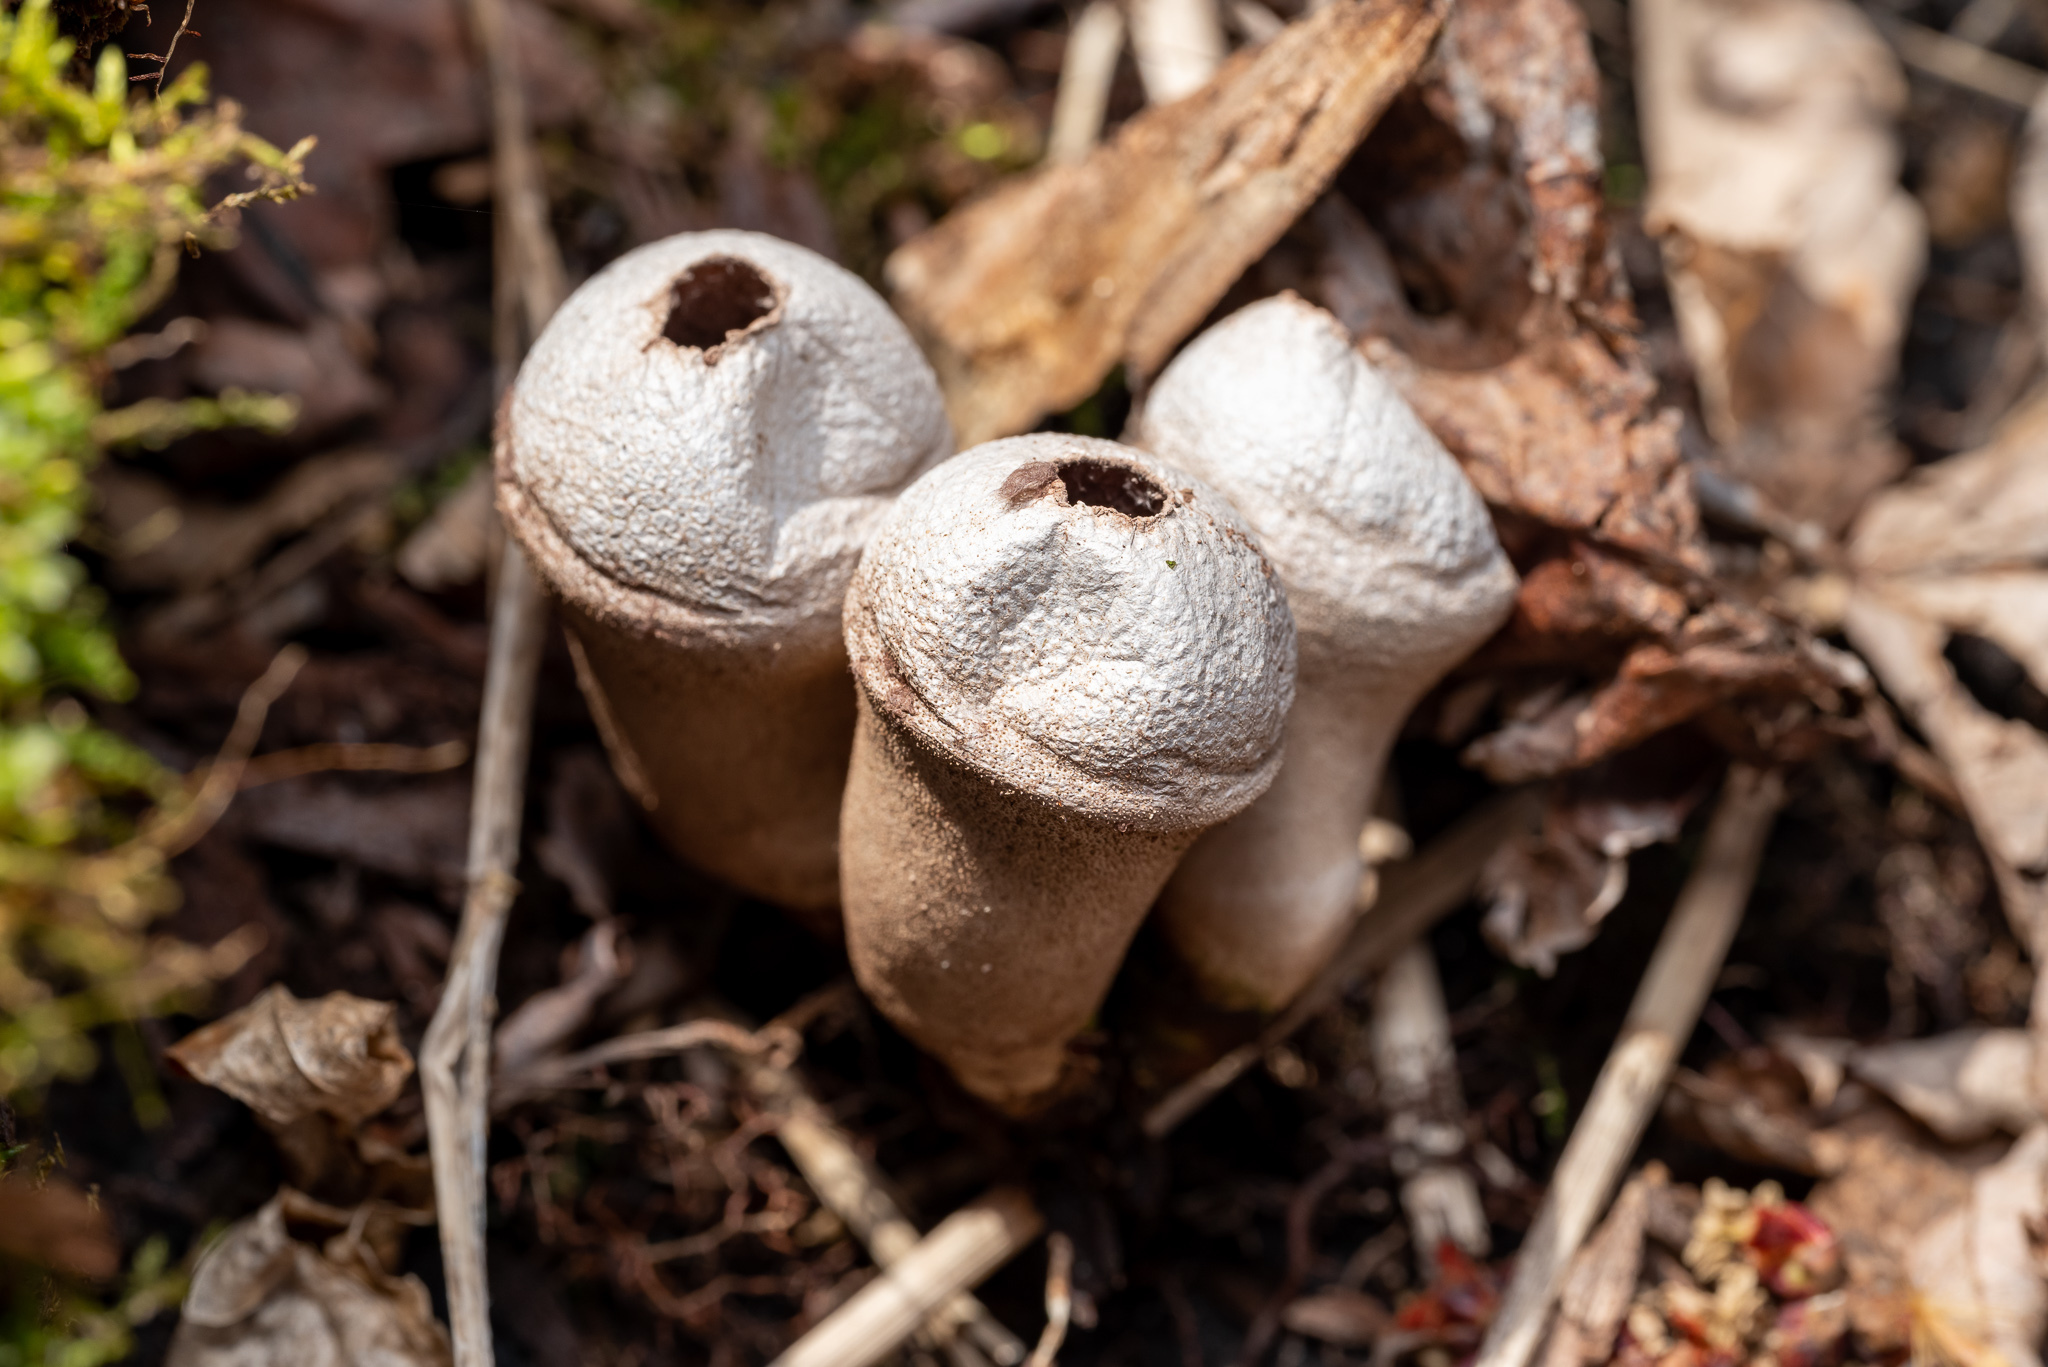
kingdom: Fungi
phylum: Basidiomycota
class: Agaricomycetes
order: Agaricales
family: Lycoperdaceae
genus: Apioperdon
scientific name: Apioperdon pyriforme
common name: Pear-shaped puffball
